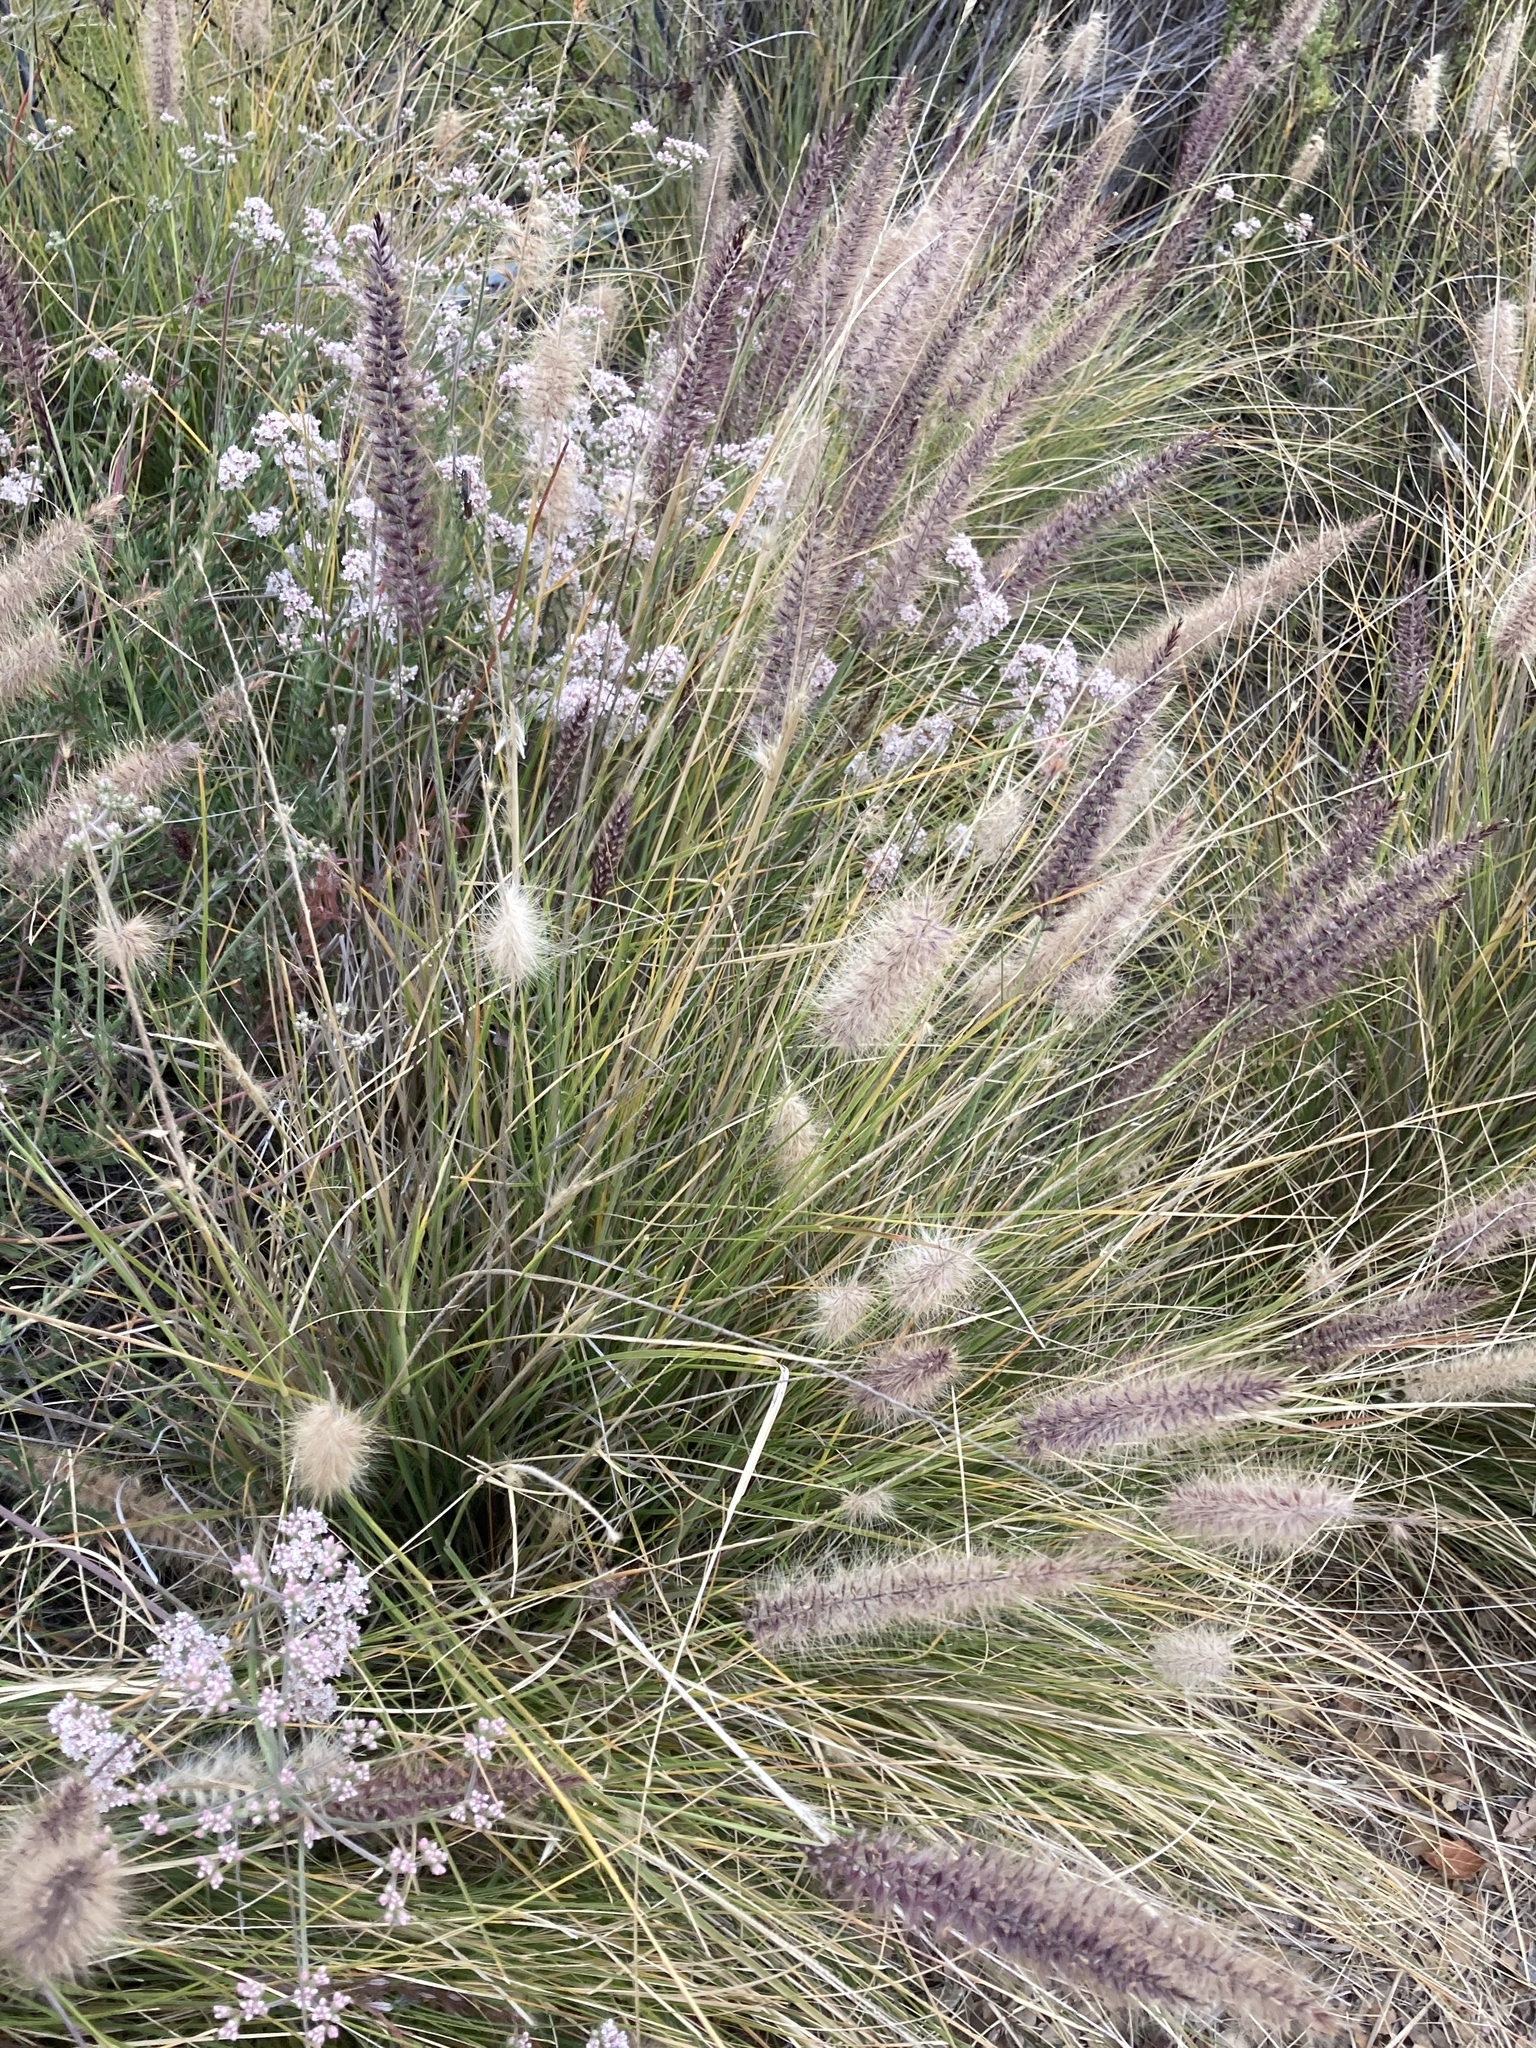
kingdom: Plantae
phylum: Tracheophyta
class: Liliopsida
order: Poales
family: Poaceae
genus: Cenchrus
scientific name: Cenchrus setaceus
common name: Crimson fountaingrass
